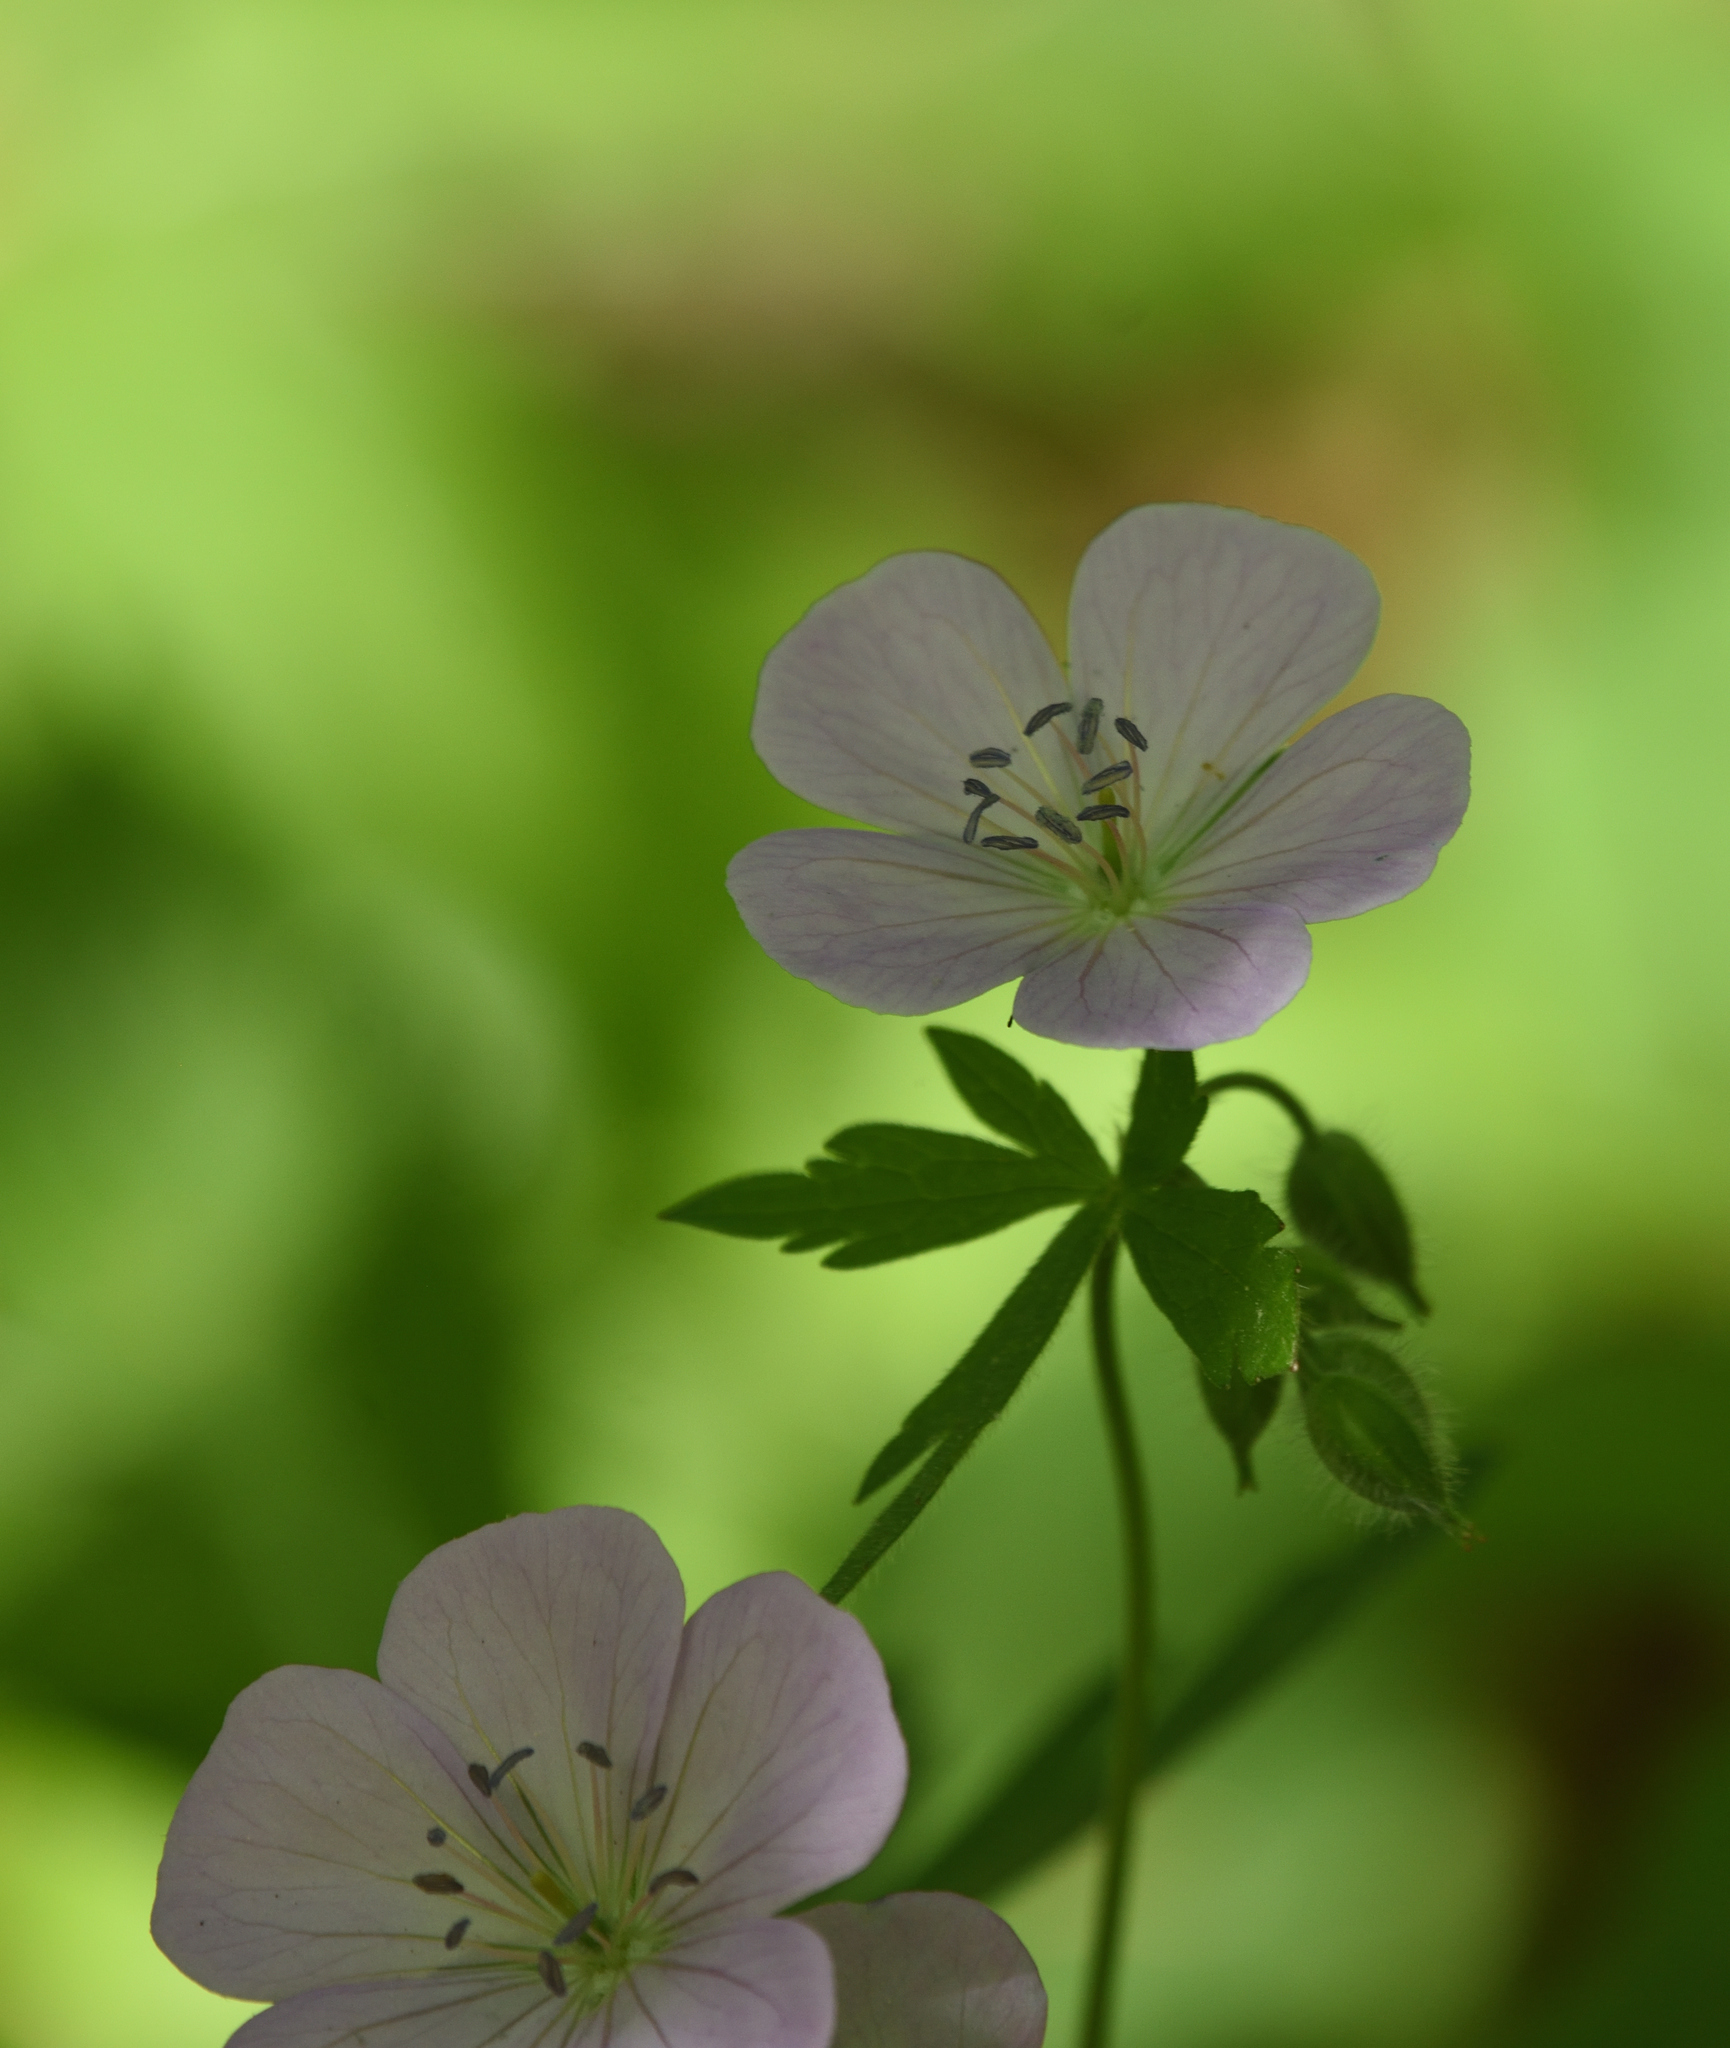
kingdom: Plantae
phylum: Tracheophyta
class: Magnoliopsida
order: Geraniales
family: Geraniaceae
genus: Geranium
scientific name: Geranium maculatum
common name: Spotted geranium
